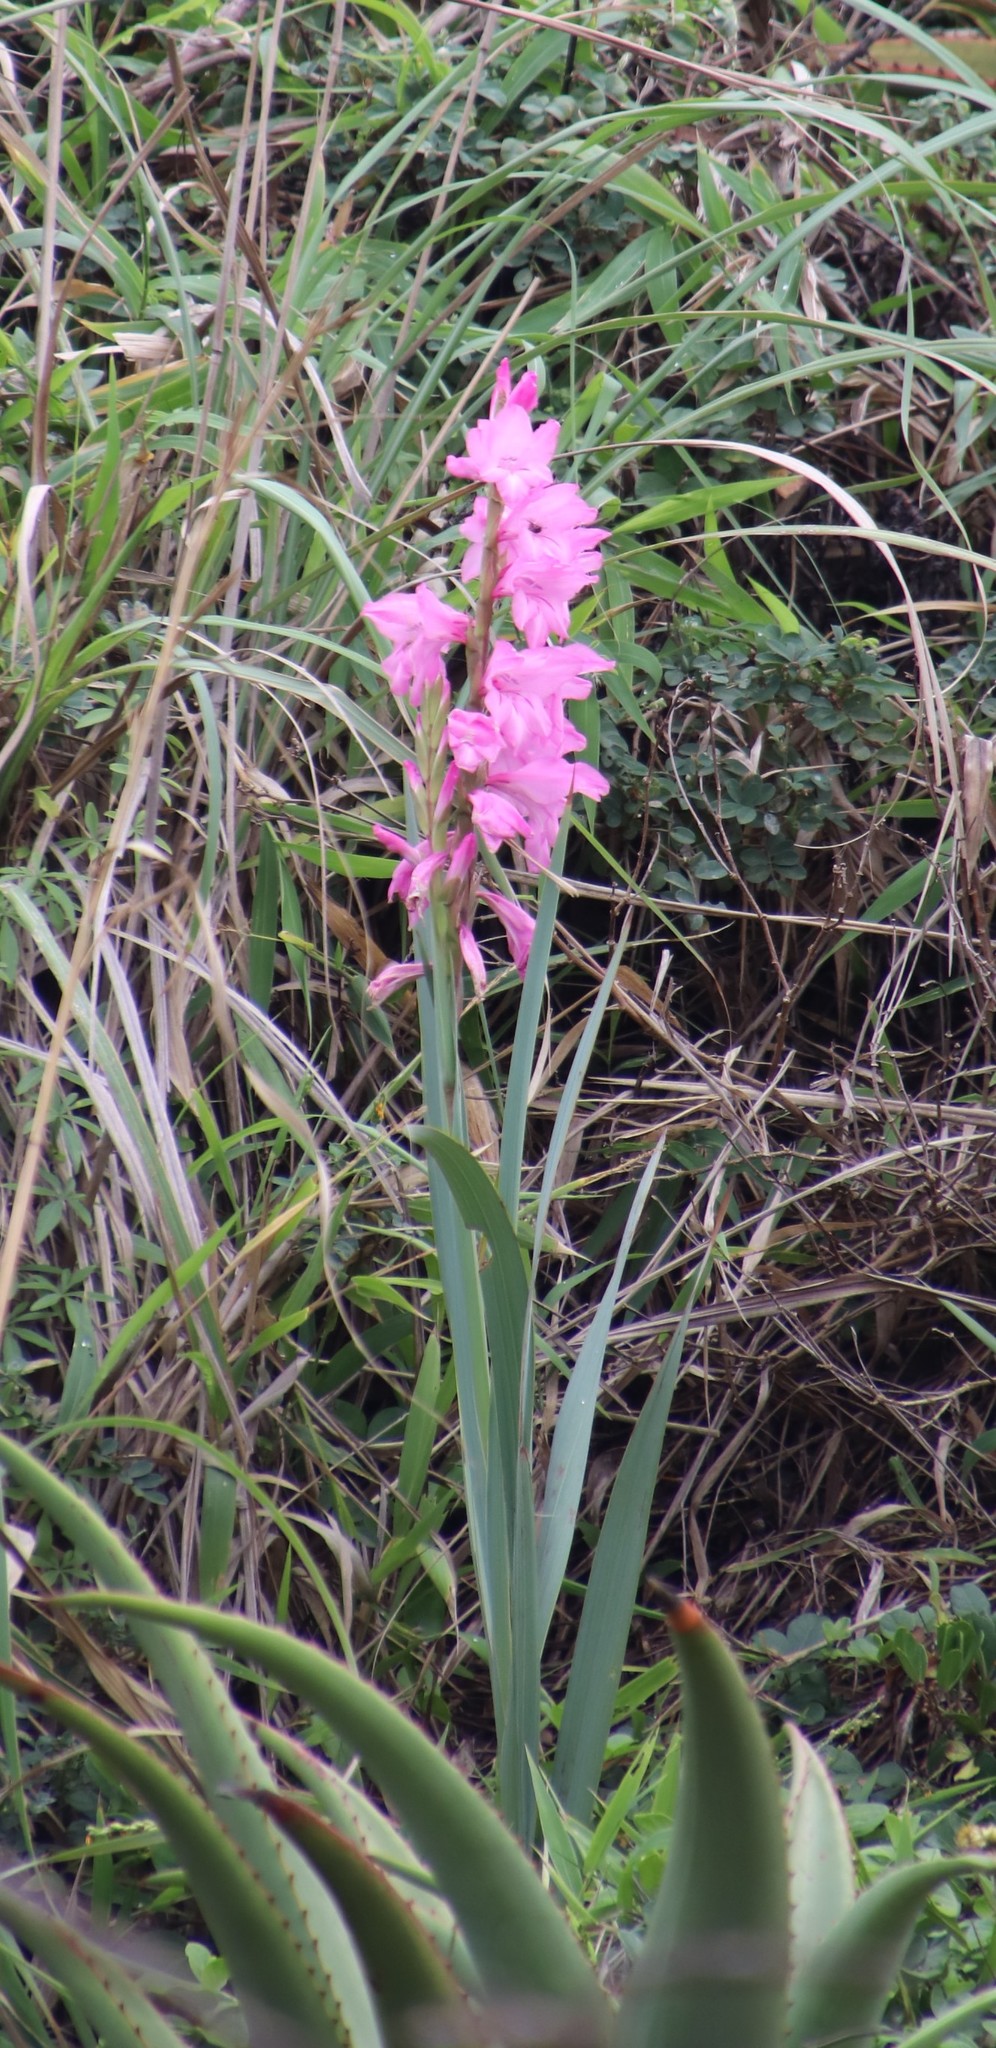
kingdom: Plantae
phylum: Tracheophyta
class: Liliopsida
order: Asparagales
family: Iridaceae
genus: Gladiolus
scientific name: Gladiolus ochroleucus
